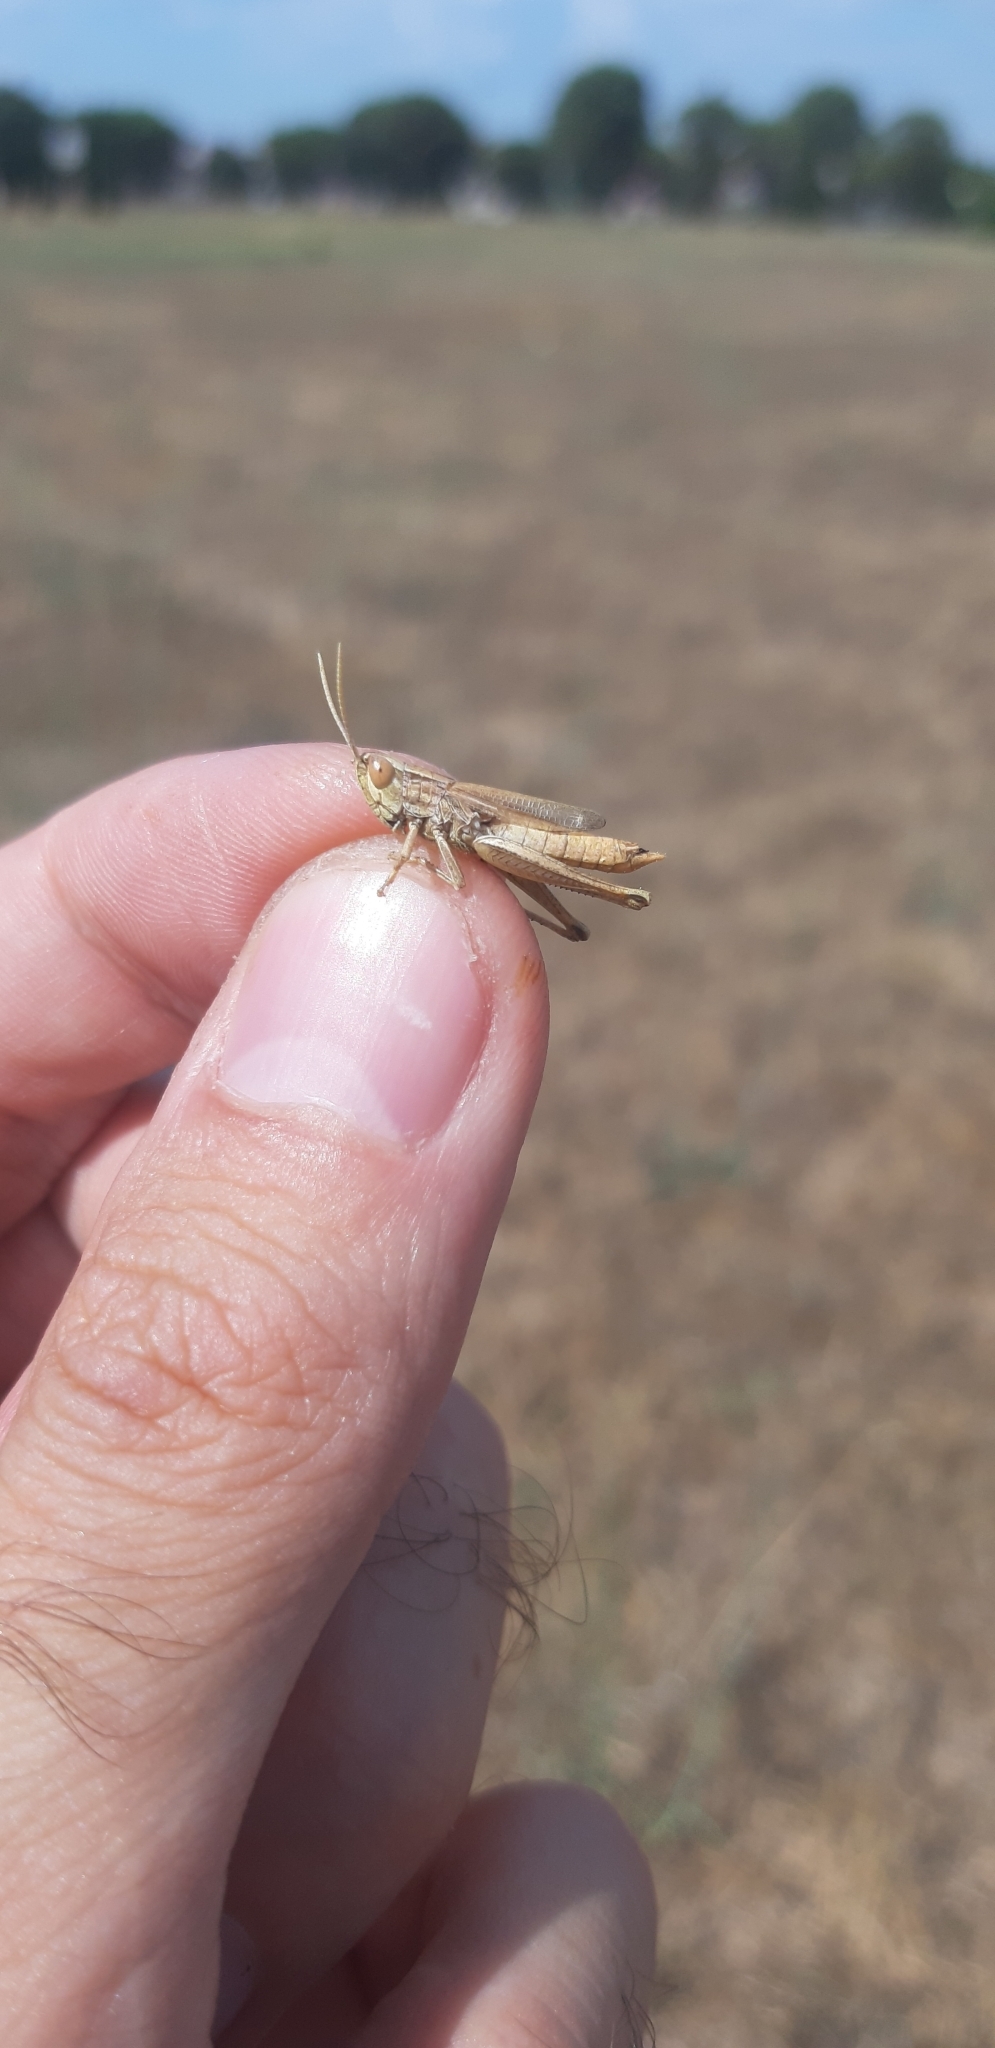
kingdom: Animalia
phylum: Arthropoda
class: Insecta
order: Orthoptera
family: Acrididae
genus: Euchorthippus
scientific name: Euchorthippus declivus
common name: Common straw grasshopper
